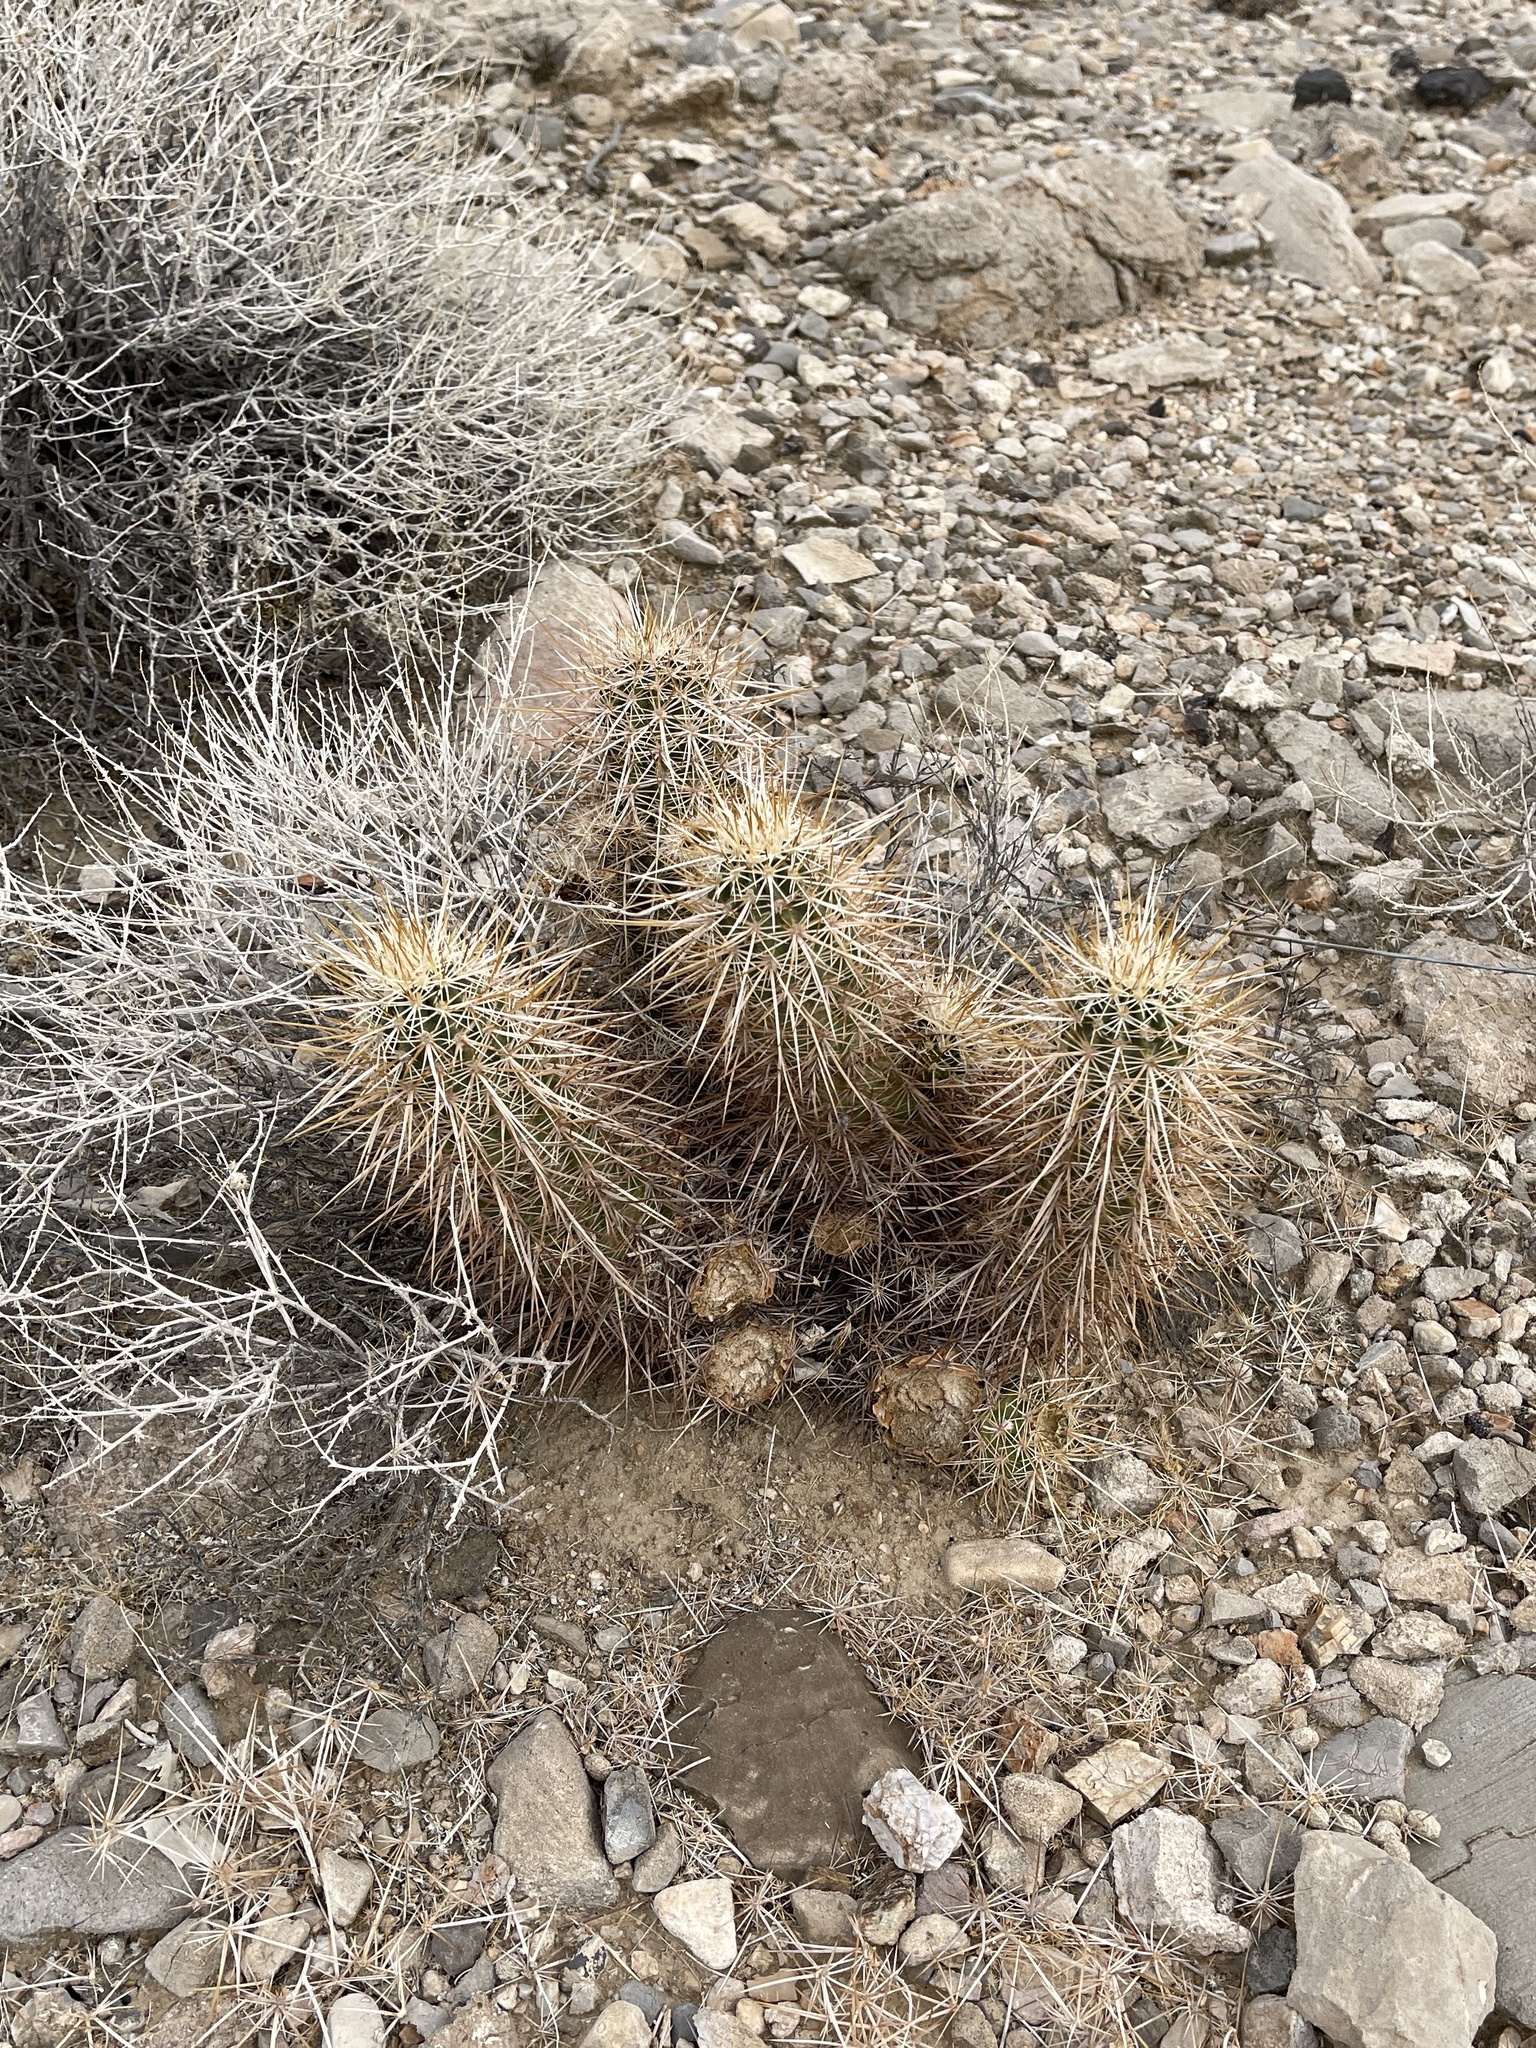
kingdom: Plantae
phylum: Tracheophyta
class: Magnoliopsida
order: Caryophyllales
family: Cactaceae
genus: Echinocereus
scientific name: Echinocereus engelmannii
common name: Engelmann's hedgehog cactus
